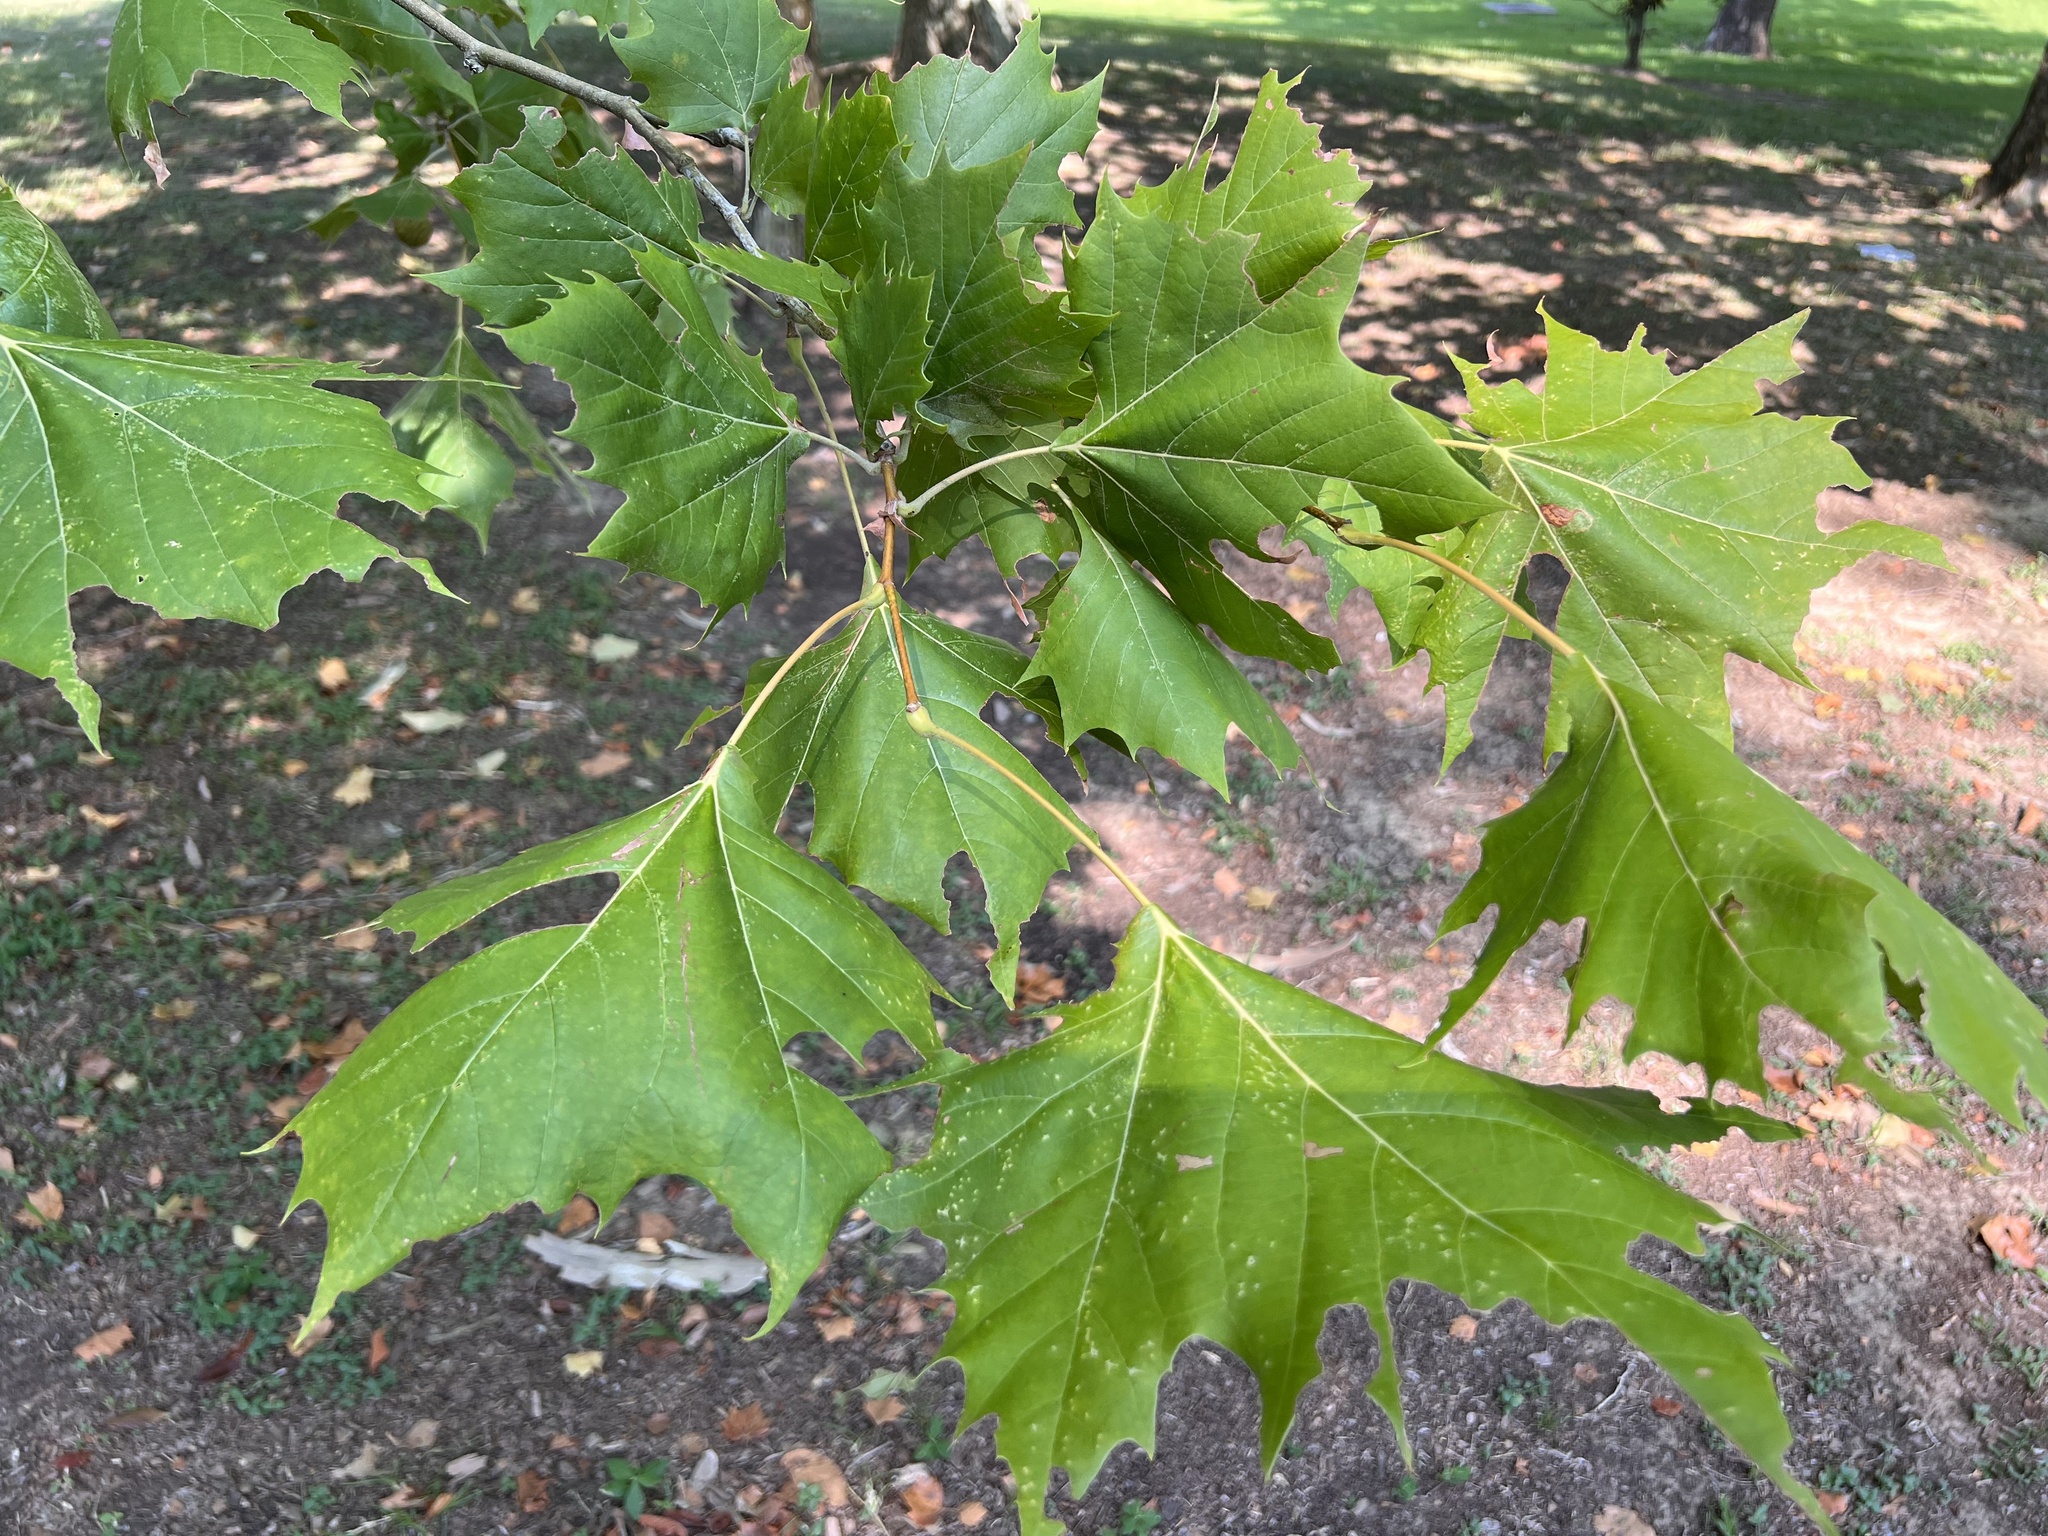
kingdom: Plantae
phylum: Tracheophyta
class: Magnoliopsida
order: Proteales
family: Platanaceae
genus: Platanus
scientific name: Platanus occidentalis
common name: American sycamore
